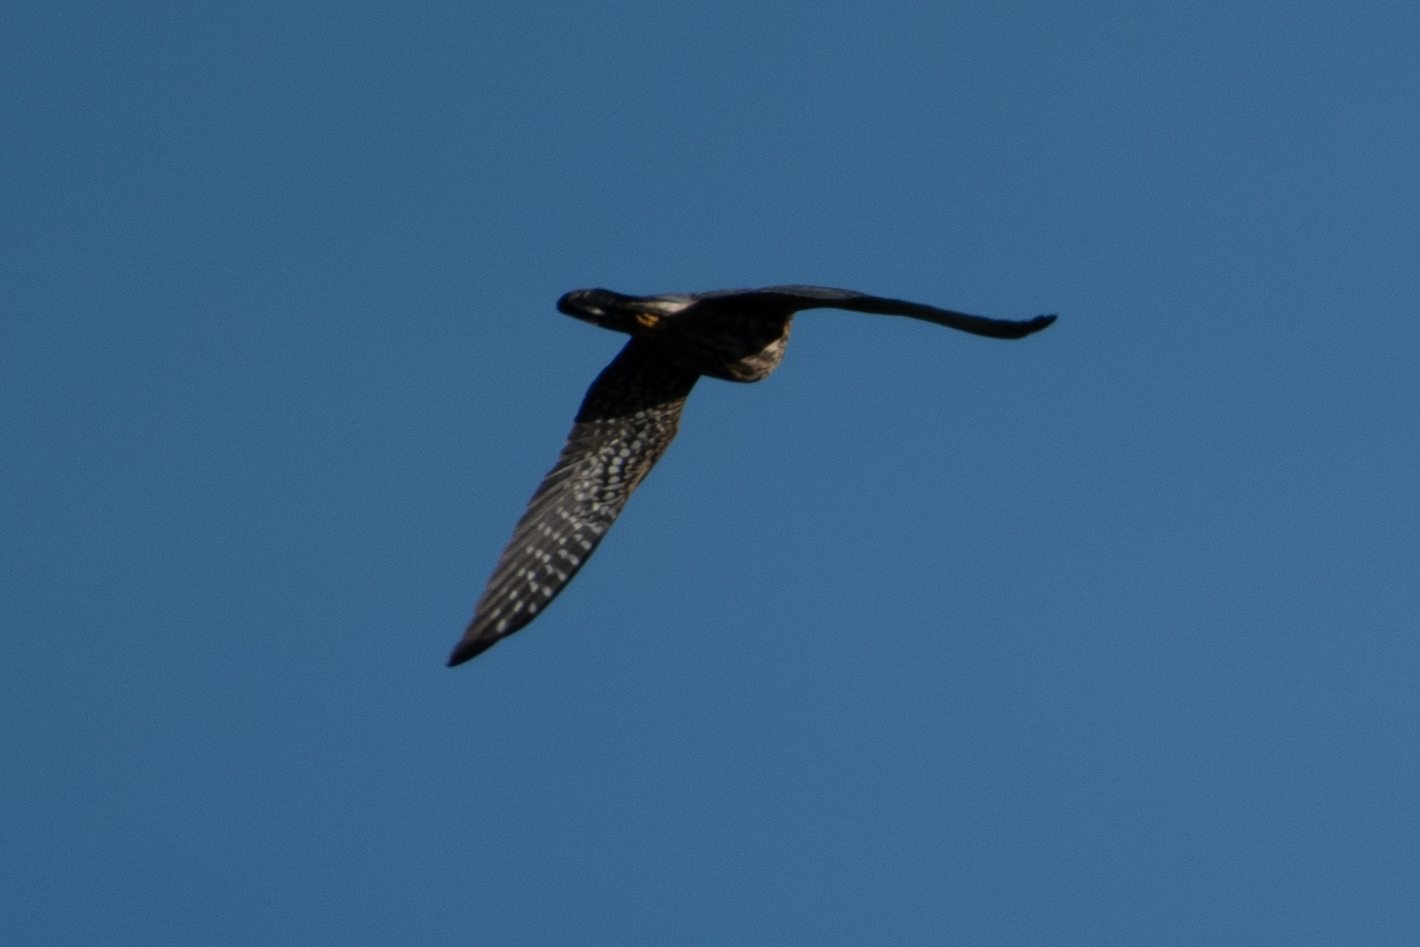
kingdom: Animalia
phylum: Chordata
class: Aves
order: Falconiformes
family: Falconidae
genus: Falco
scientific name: Falco columbarius
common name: Merlin
